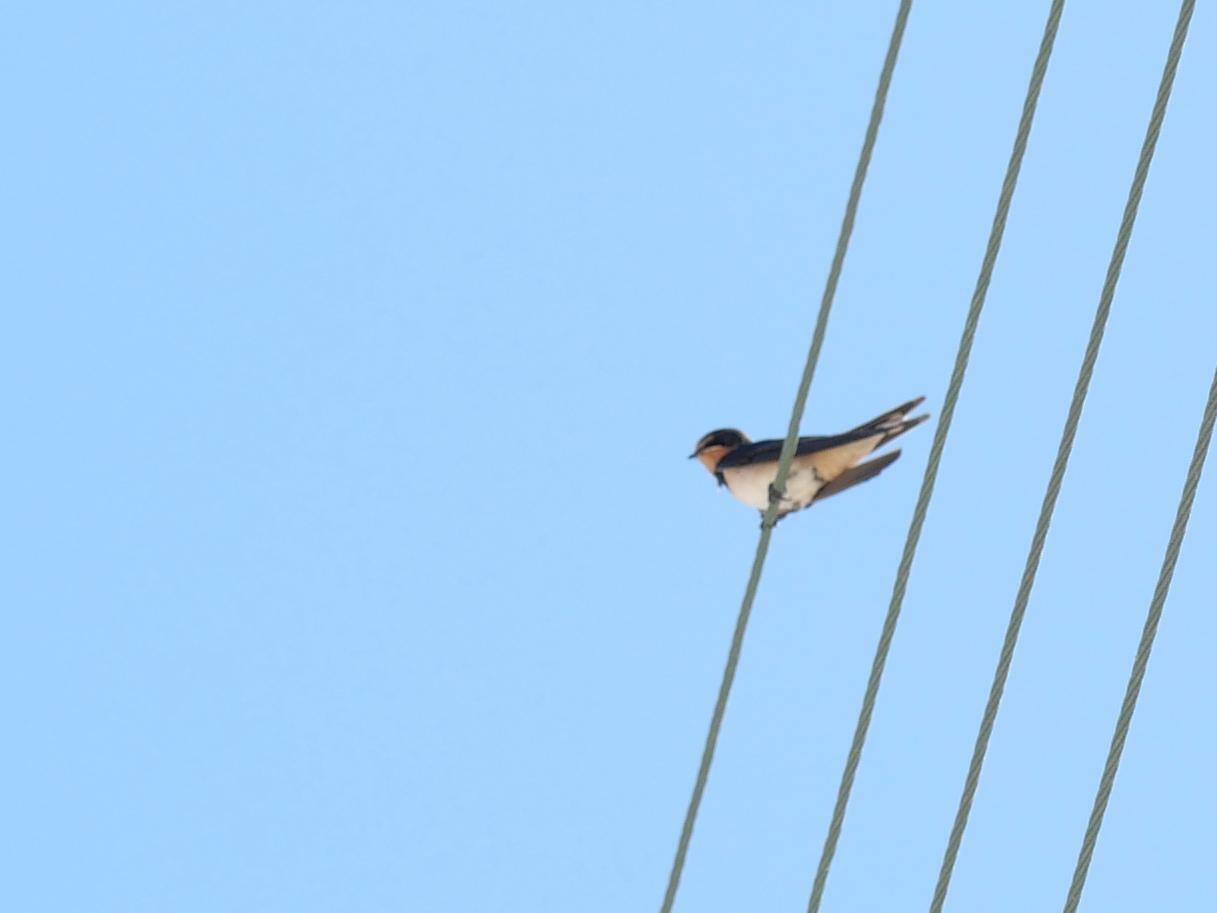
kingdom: Animalia
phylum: Chordata
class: Aves
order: Passeriformes
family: Hirundinidae
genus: Hirundo
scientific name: Hirundo rustica
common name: Barn swallow
